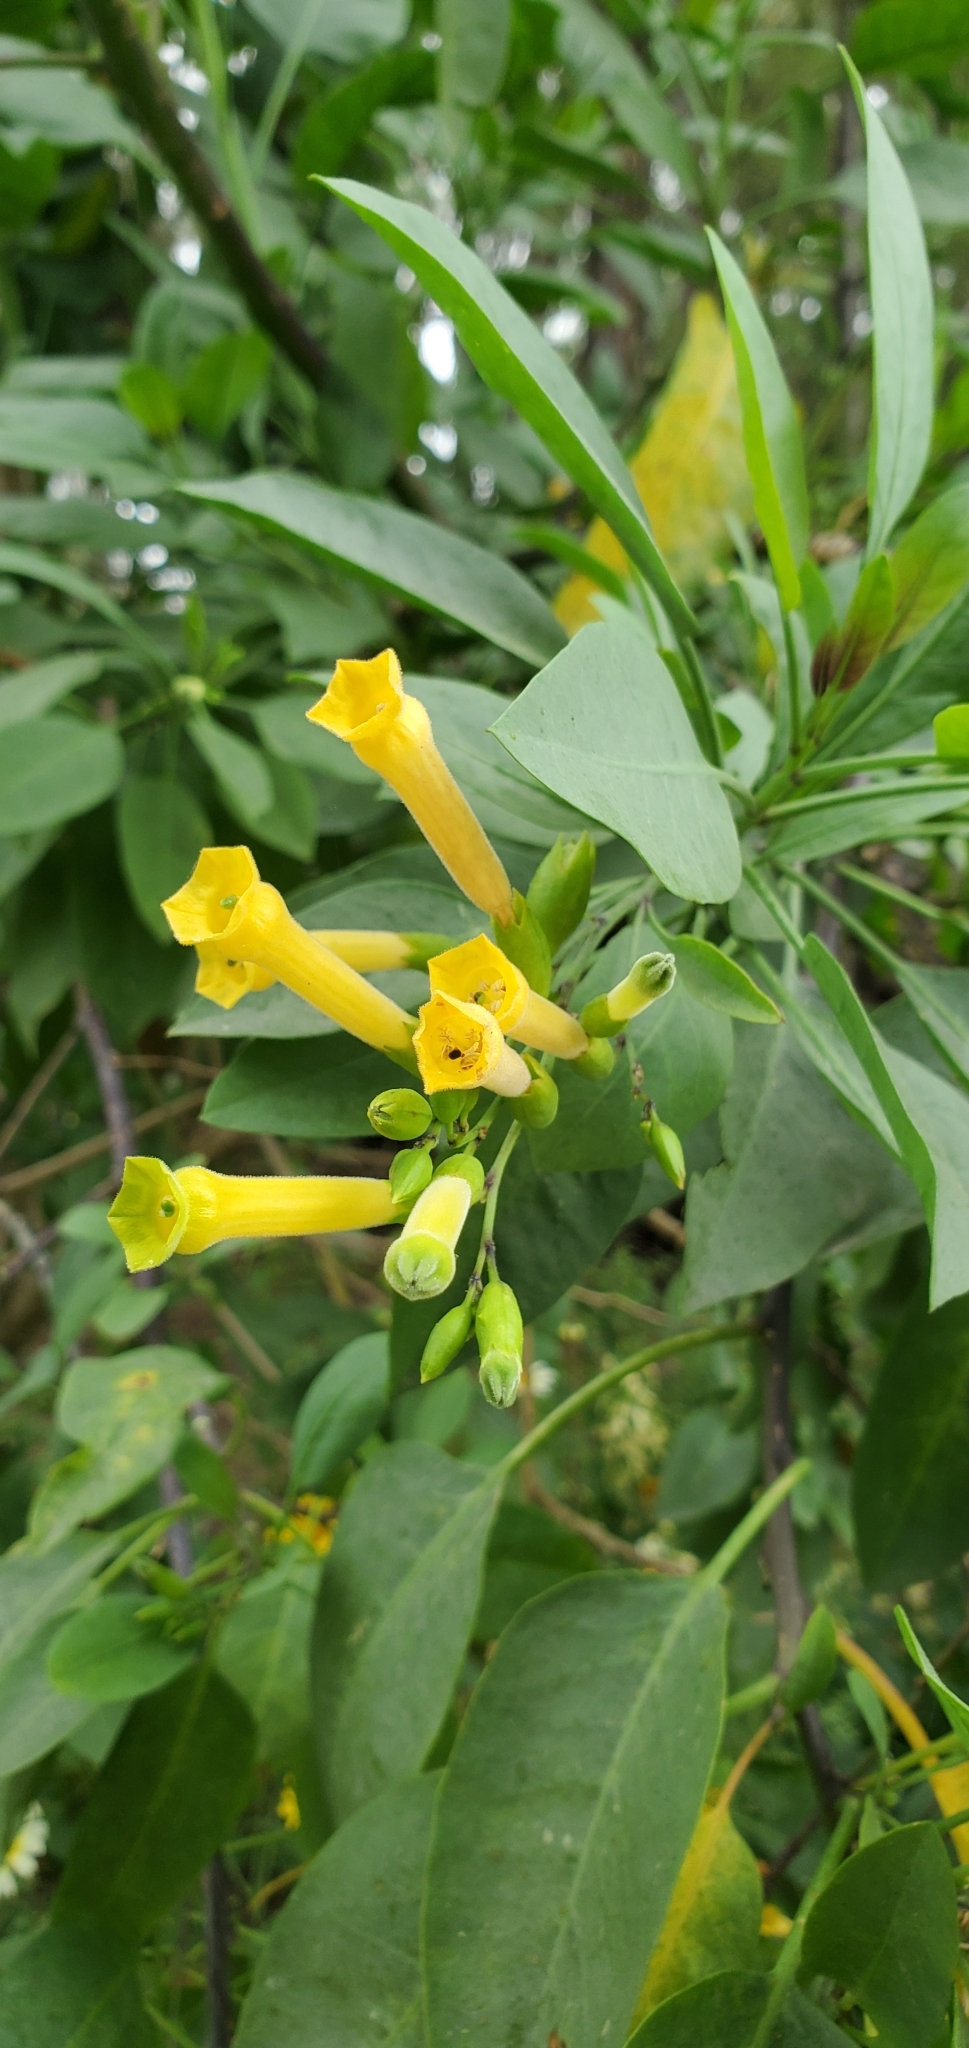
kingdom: Plantae
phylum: Tracheophyta
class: Magnoliopsida
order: Solanales
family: Solanaceae
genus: Nicotiana
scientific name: Nicotiana glauca
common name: Tree tobacco
